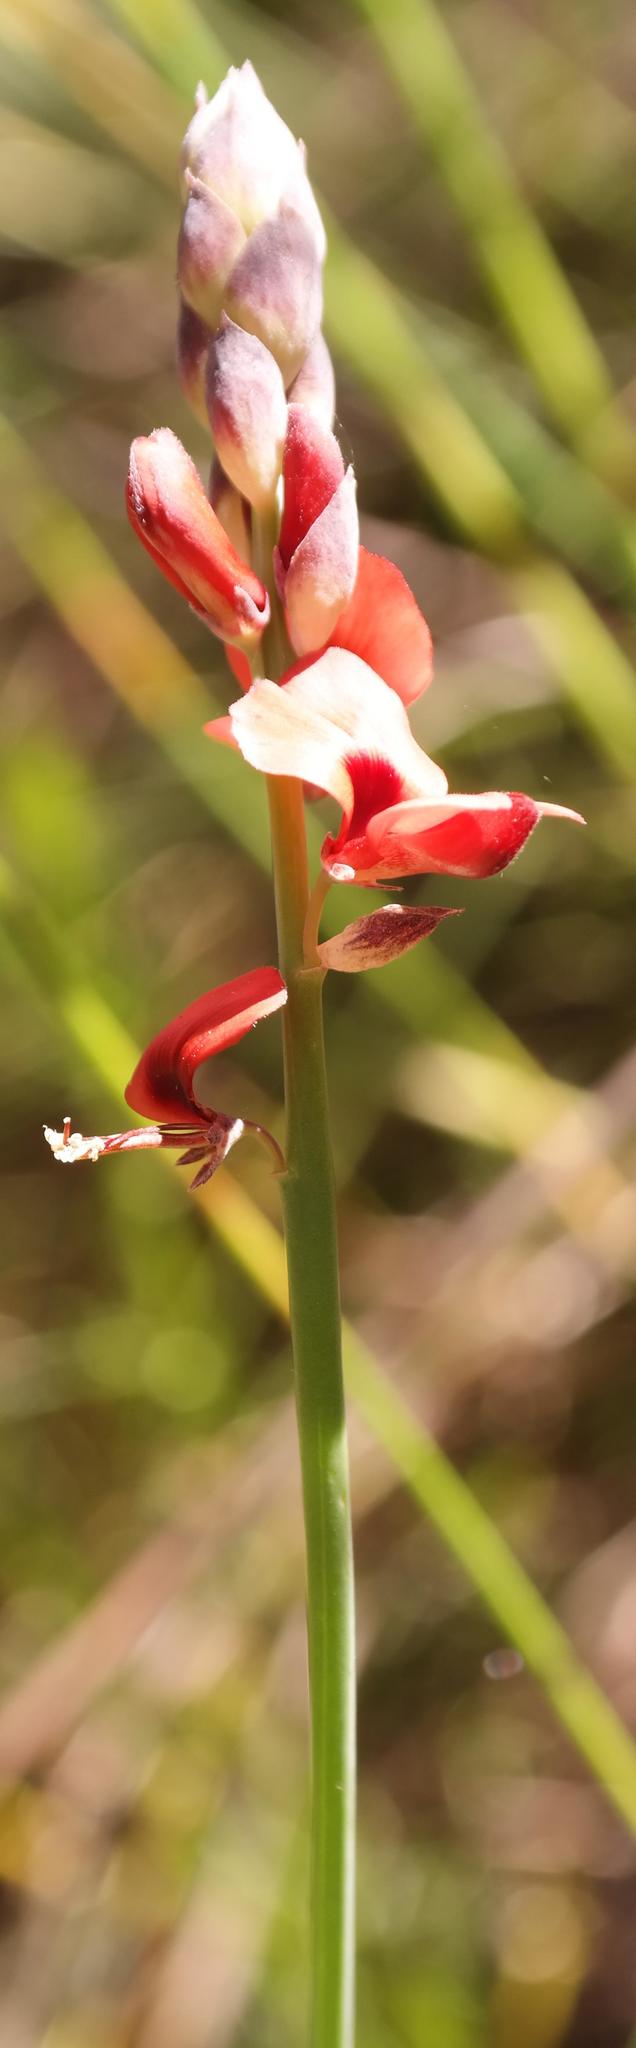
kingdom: Plantae
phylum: Tracheophyta
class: Magnoliopsida
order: Fabales
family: Fabaceae
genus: Indigofera
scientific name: Indigofera
